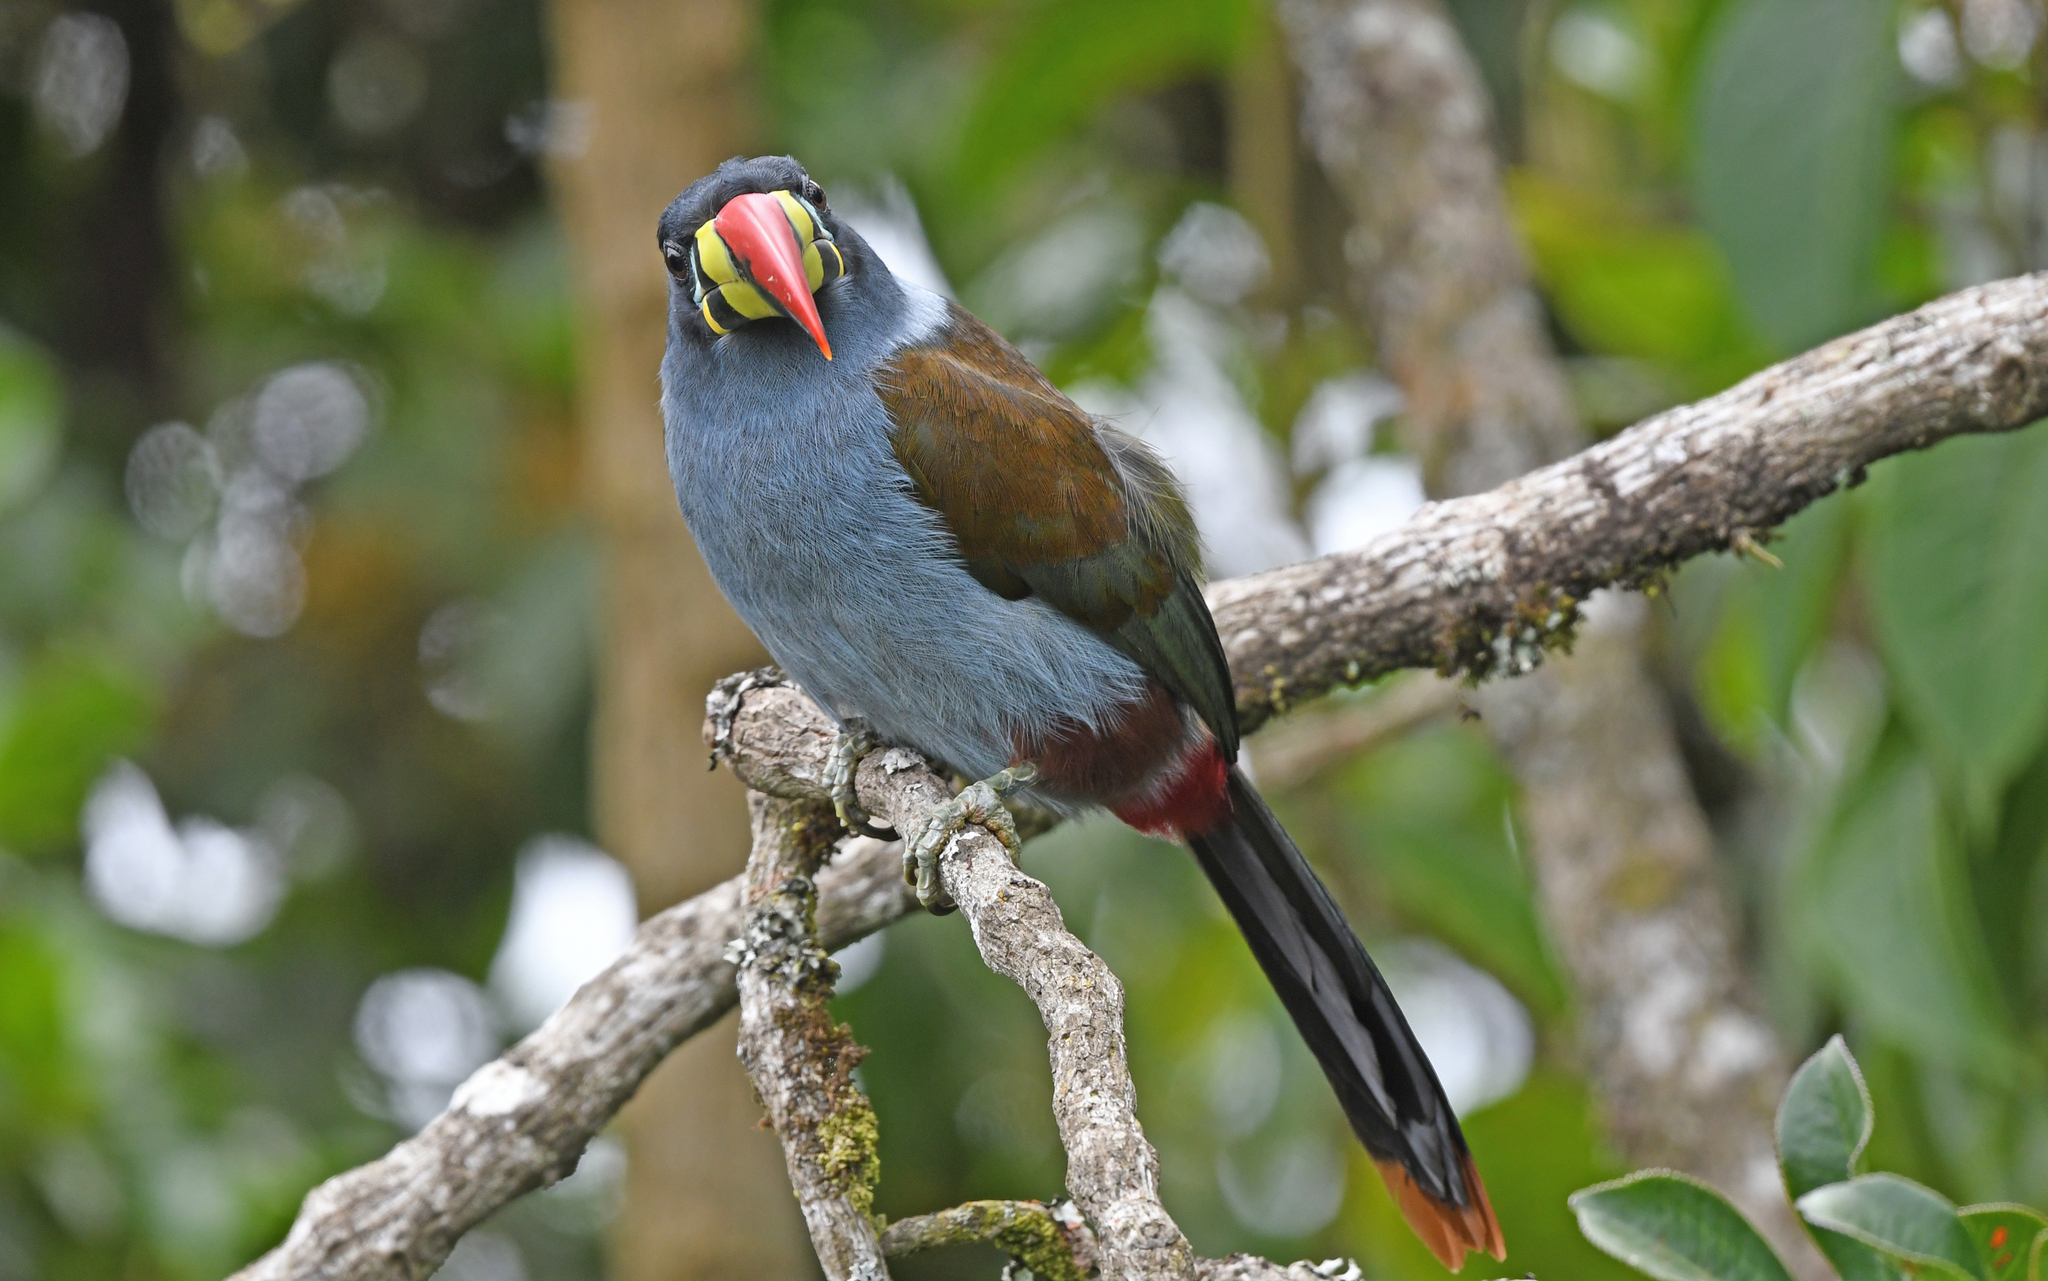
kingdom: Animalia
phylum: Chordata
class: Aves
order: Piciformes
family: Ramphastidae
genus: Andigena
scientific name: Andigena hypoglauca
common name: Grey-breasted mountain toucan
